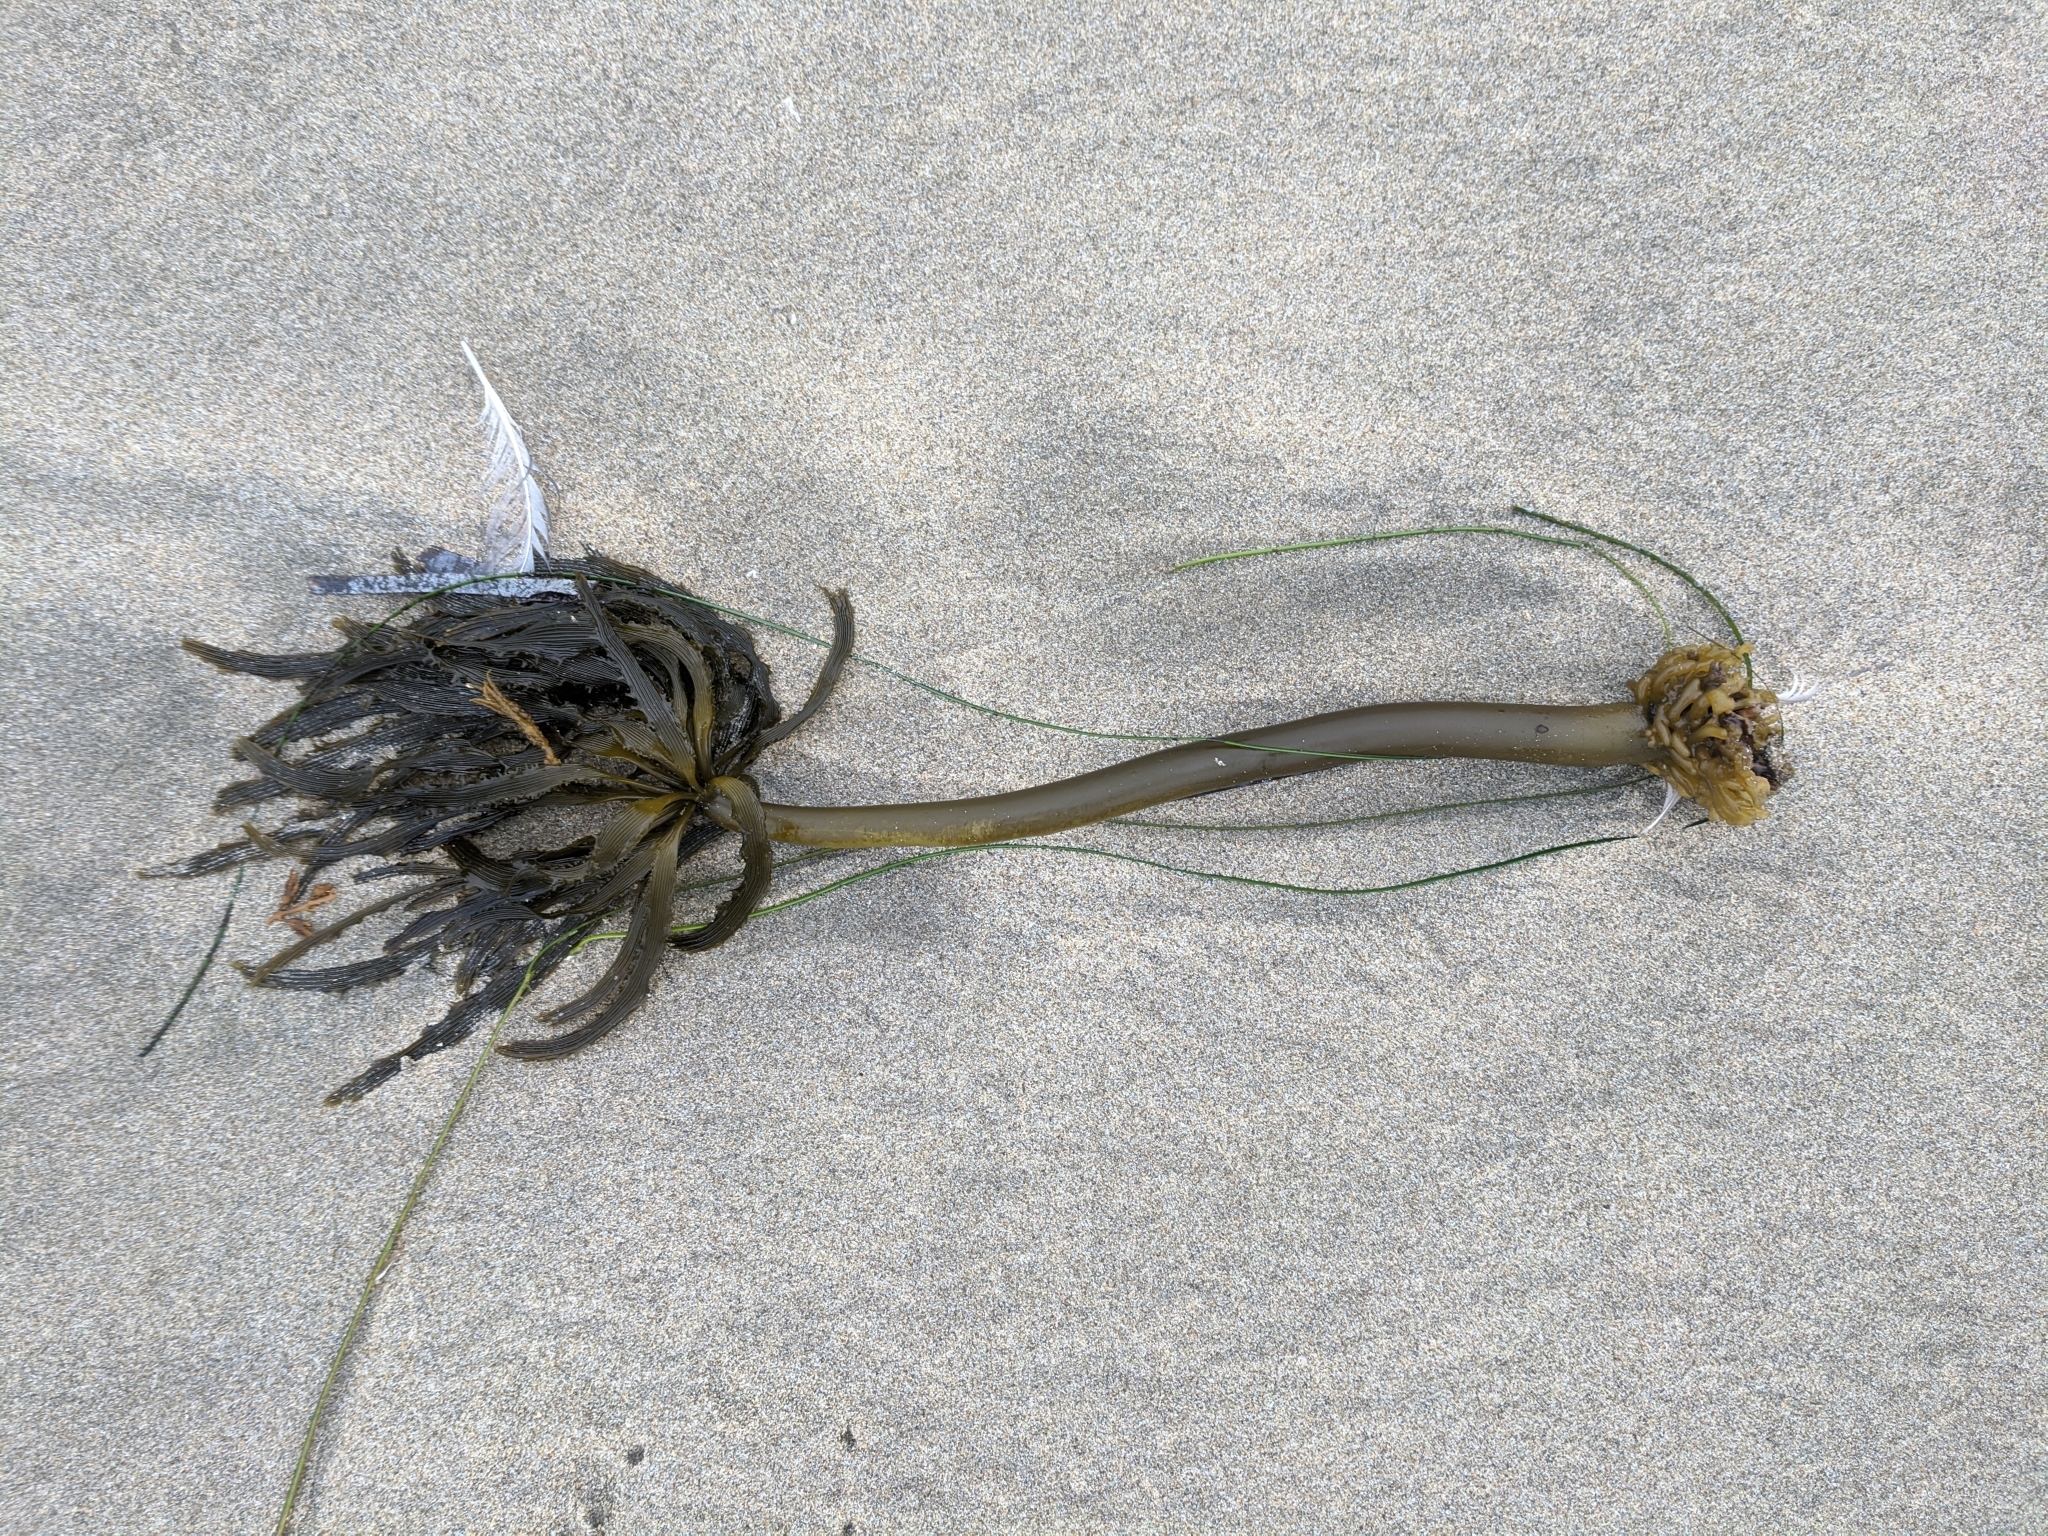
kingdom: Chromista
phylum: Ochrophyta
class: Phaeophyceae
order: Laminariales
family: Laminariaceae
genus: Postelsia
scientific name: Postelsia palmiformis
